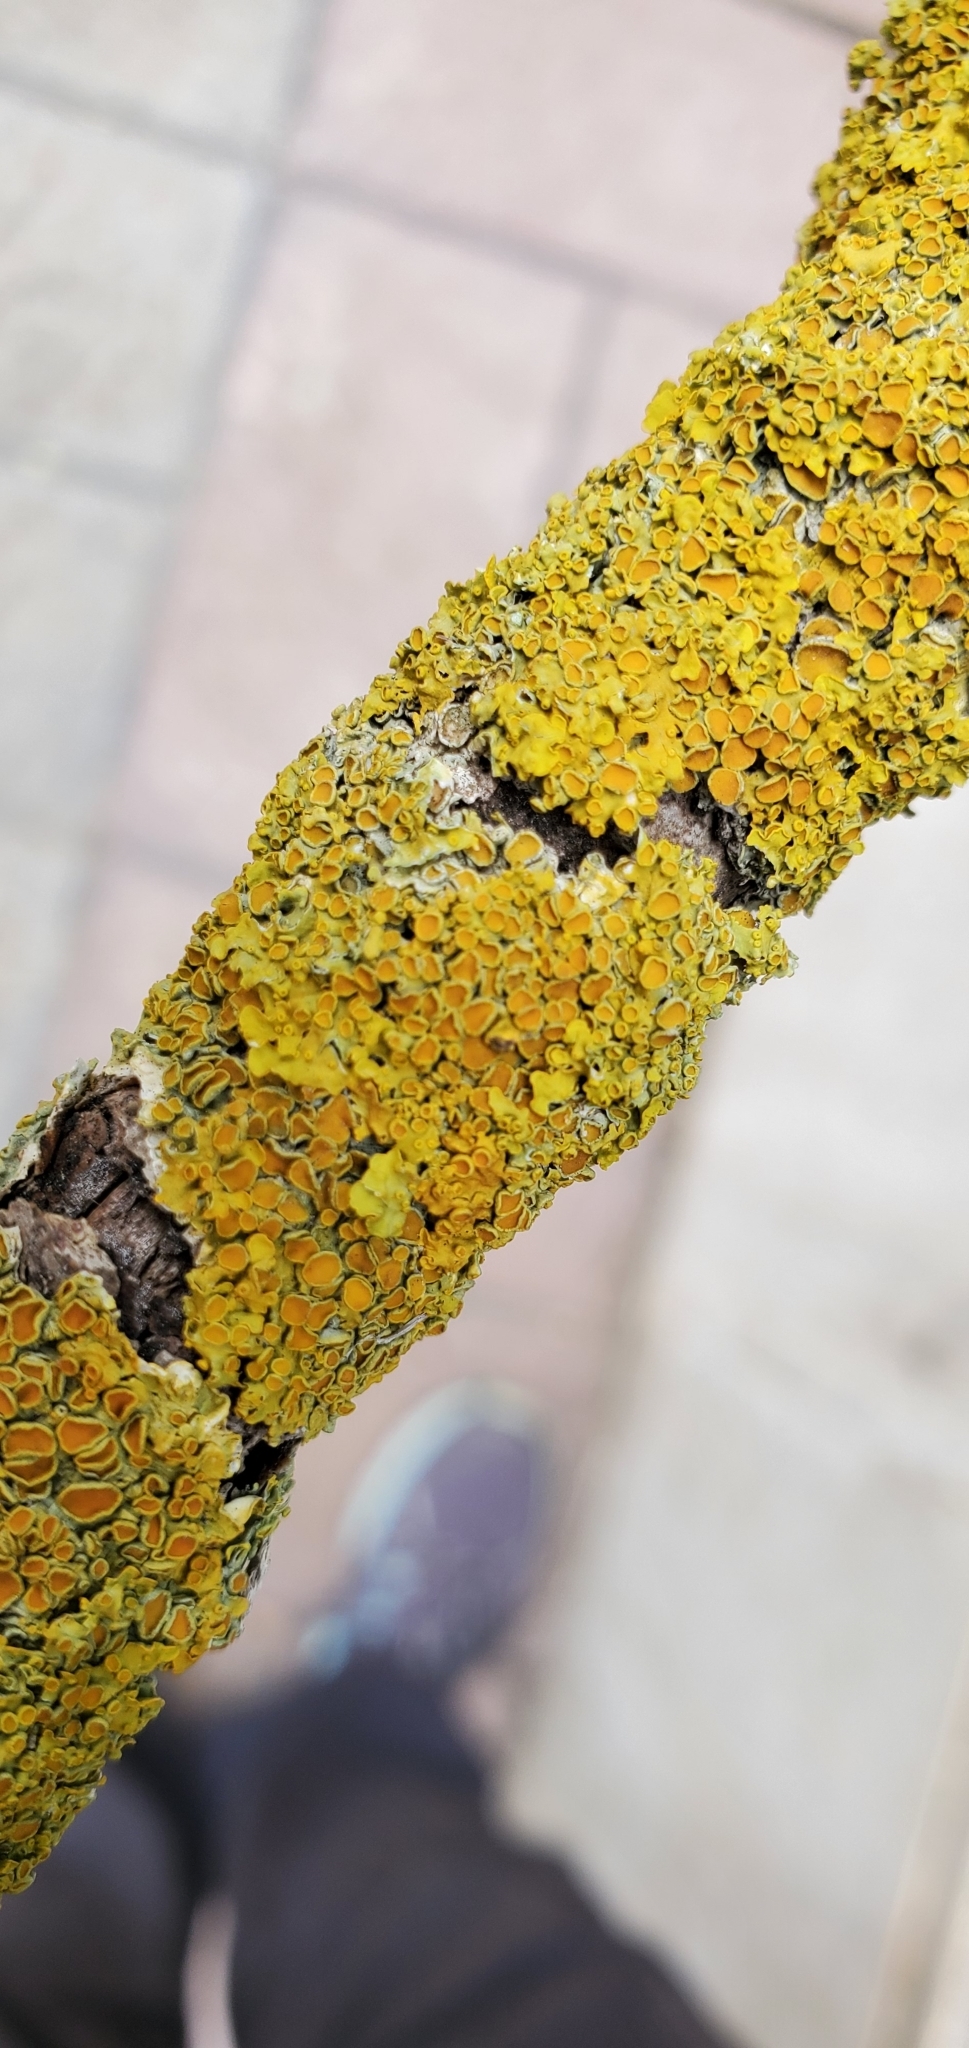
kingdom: Fungi
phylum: Ascomycota
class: Lecanoromycetes
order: Teloschistales
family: Teloschistaceae
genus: Xanthoria
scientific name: Xanthoria parietina
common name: Common orange lichen
